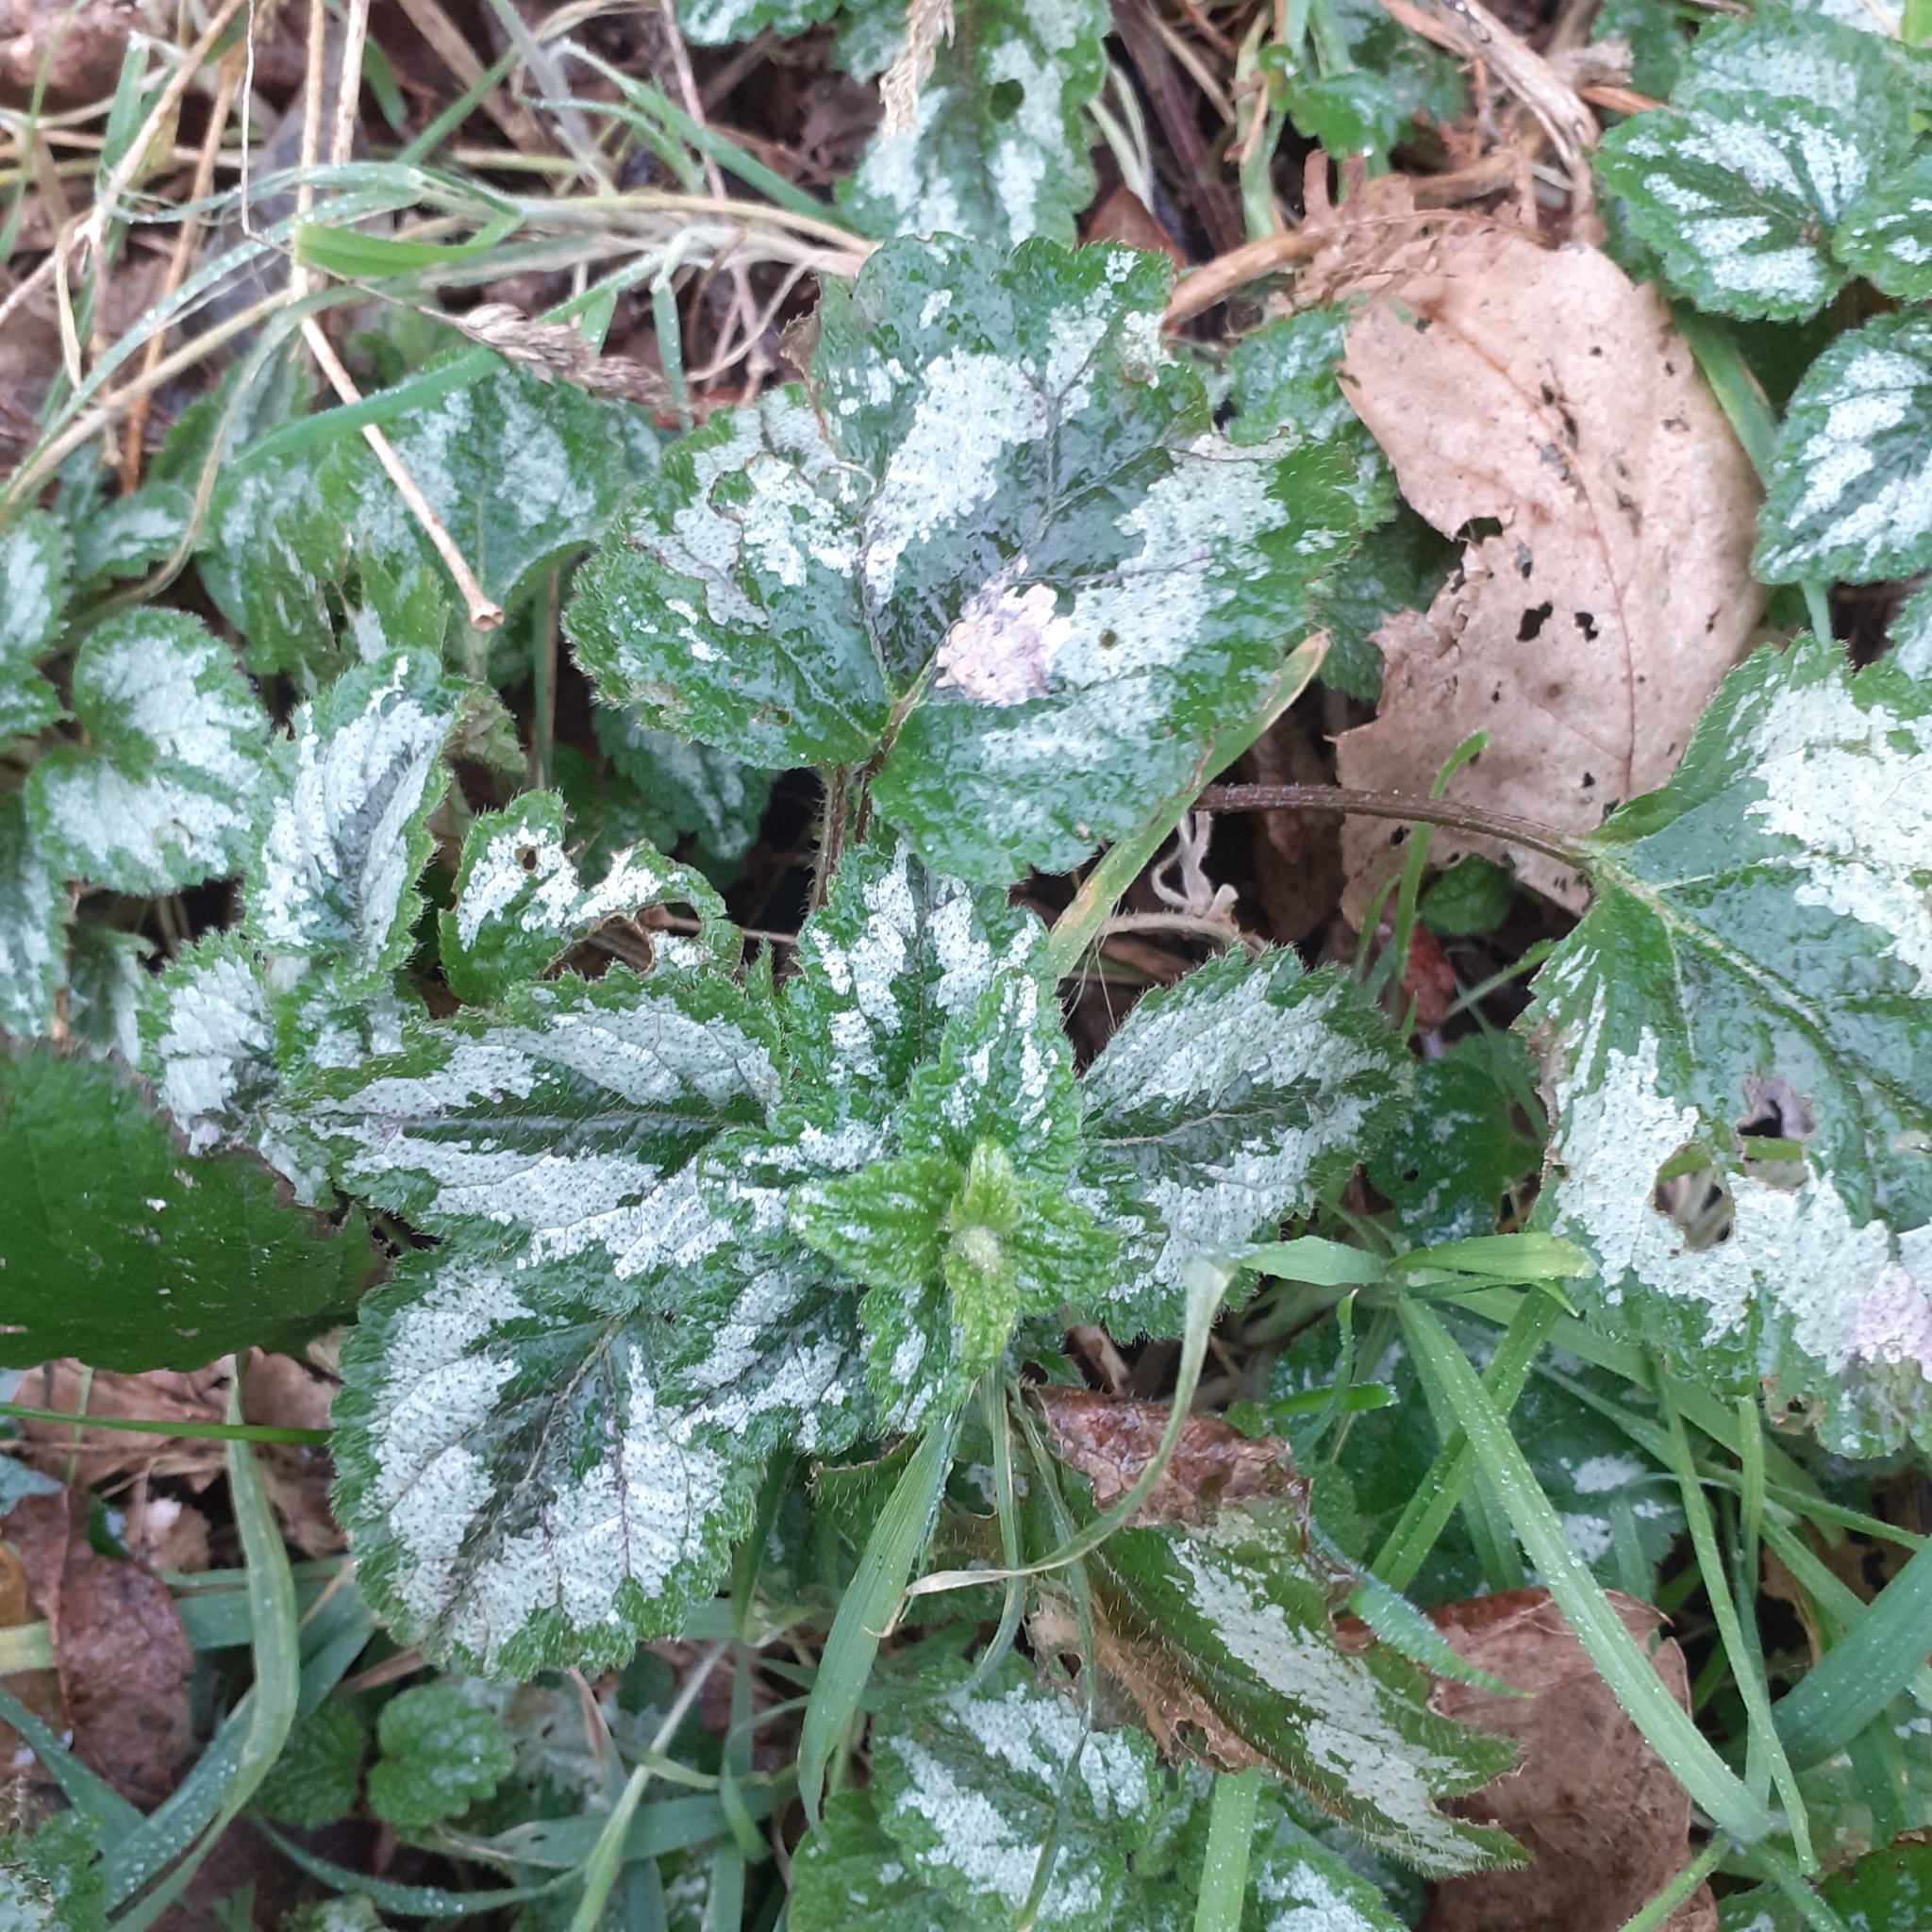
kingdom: Plantae
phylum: Tracheophyta
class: Magnoliopsida
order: Lamiales
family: Lamiaceae
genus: Lamium
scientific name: Lamium galeobdolon
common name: Yellow archangel
